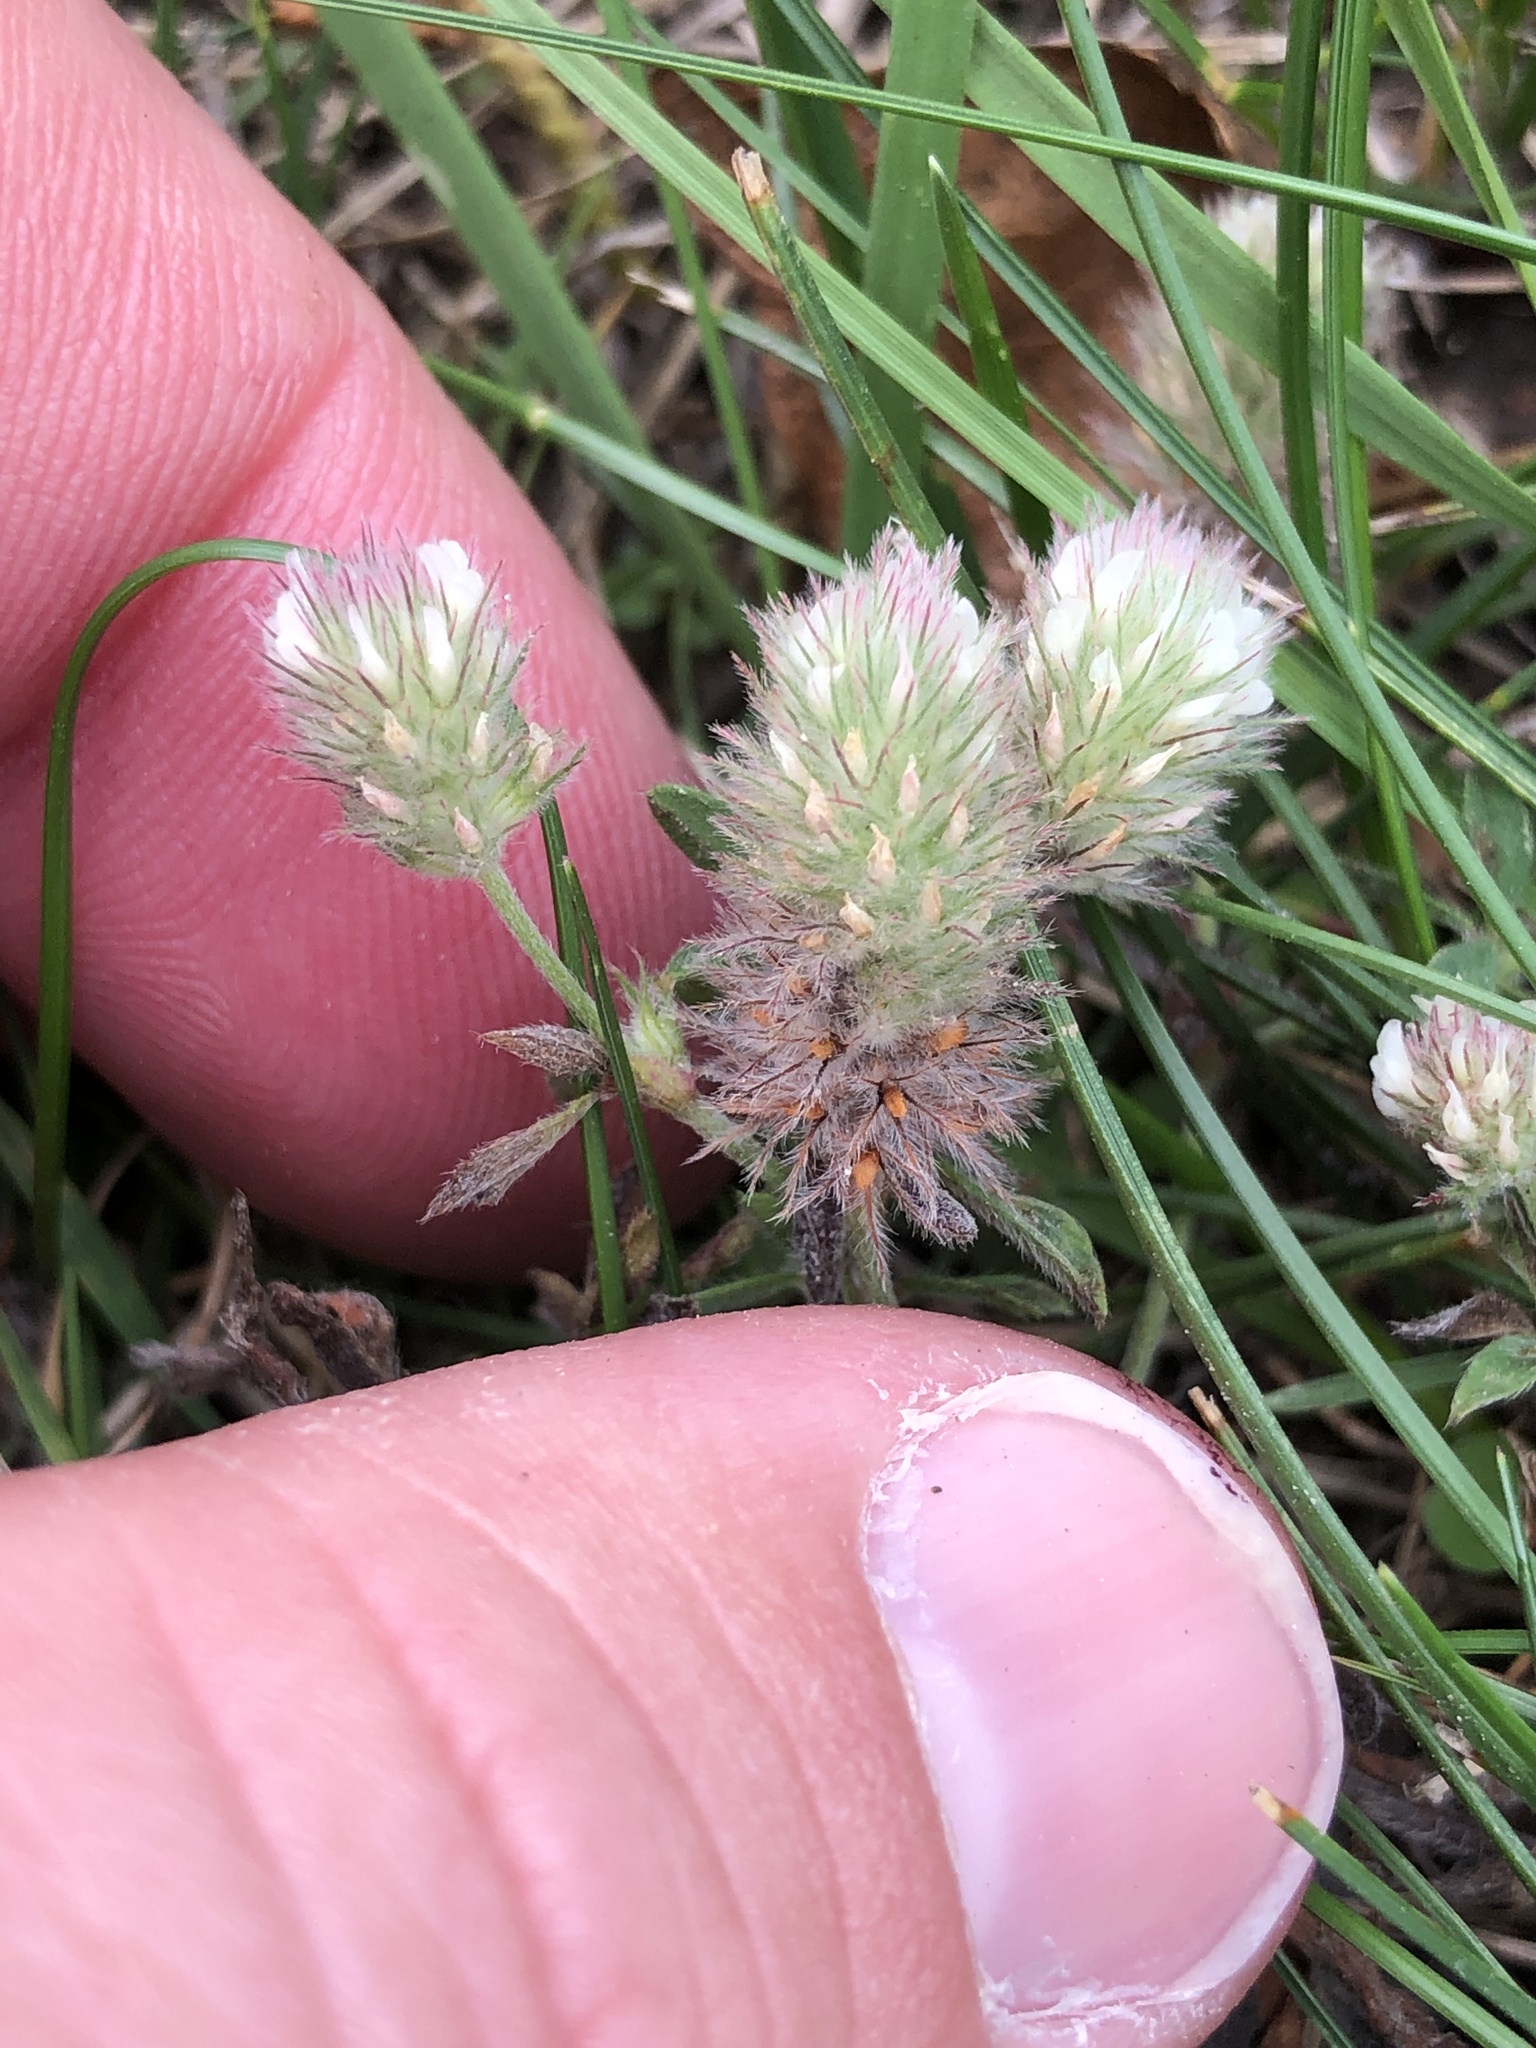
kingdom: Plantae
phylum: Tracheophyta
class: Magnoliopsida
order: Fabales
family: Fabaceae
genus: Trifolium
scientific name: Trifolium arvense
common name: Hare's-foot clover
